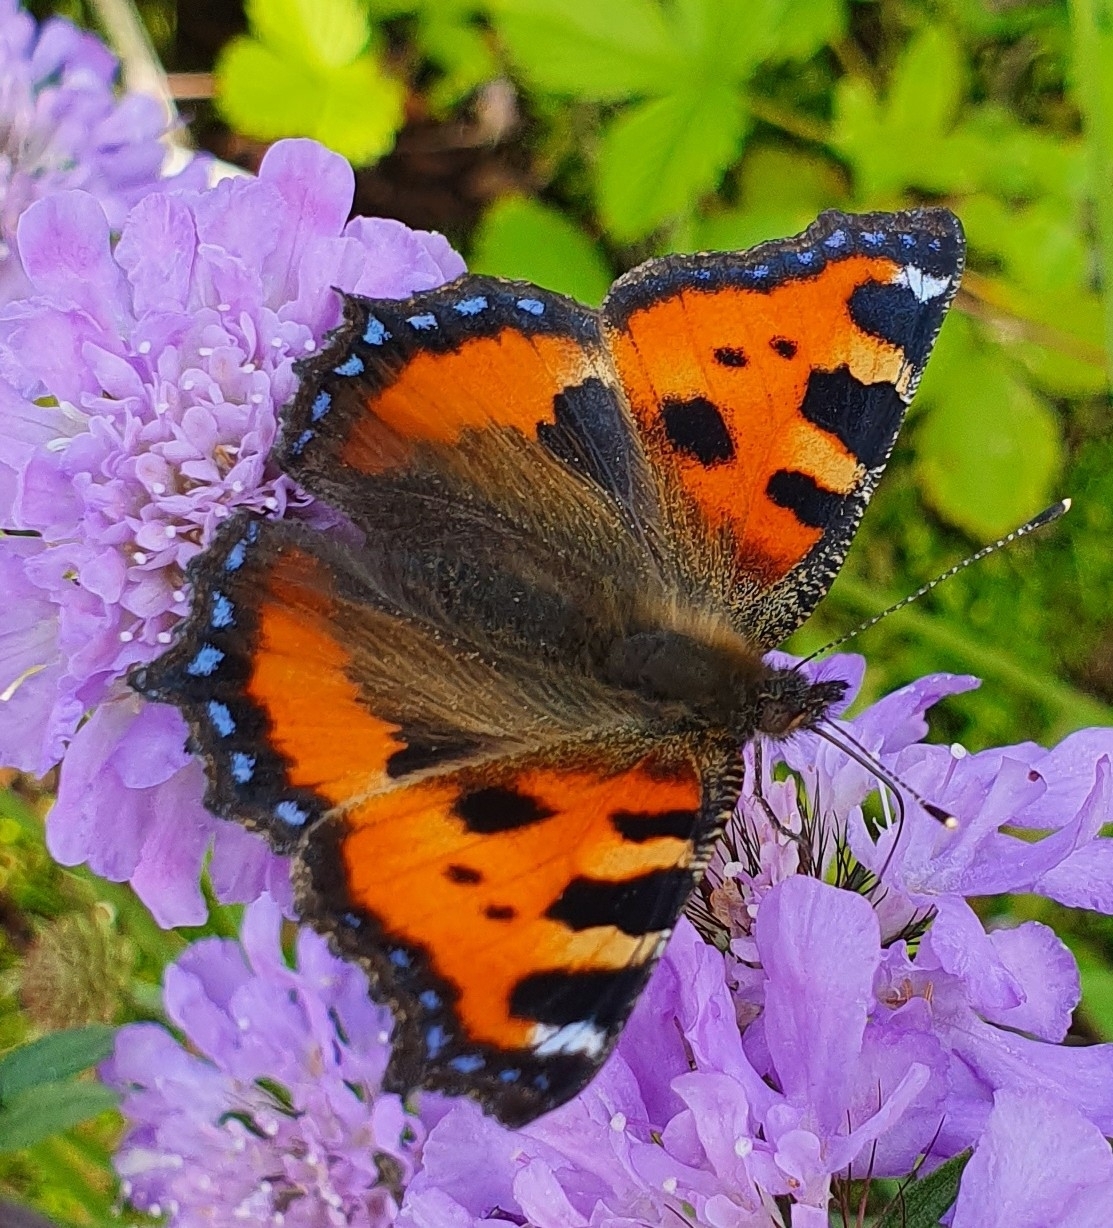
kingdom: Animalia
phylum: Arthropoda
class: Insecta
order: Lepidoptera
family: Nymphalidae
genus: Aglais
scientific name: Aglais urticae
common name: Small tortoiseshell
